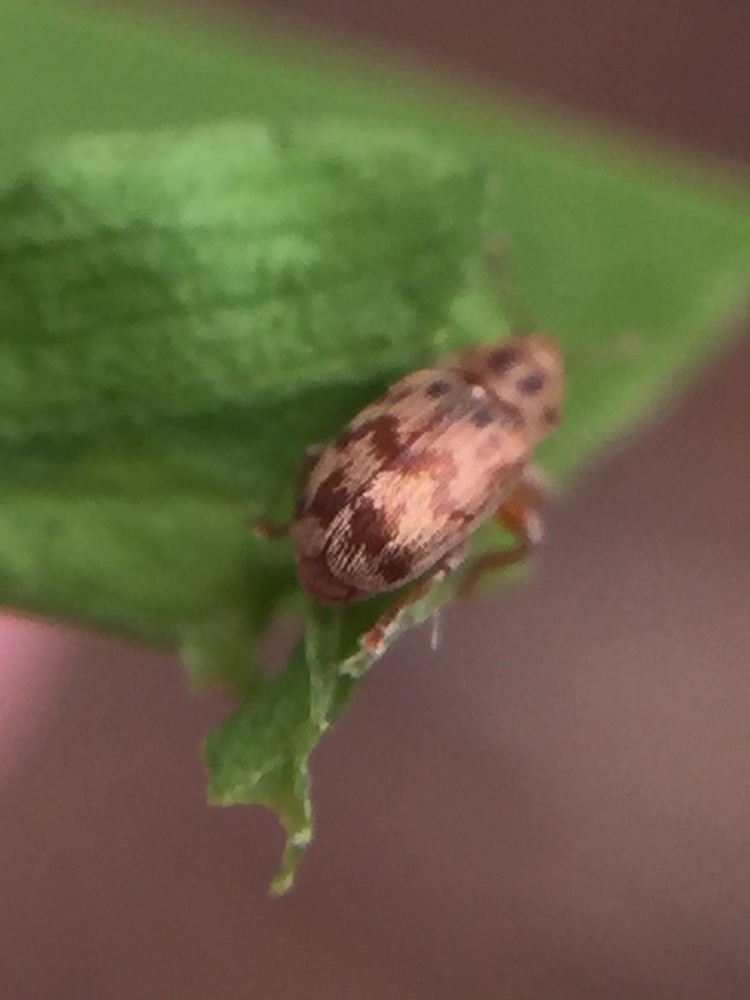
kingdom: Animalia
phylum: Arthropoda
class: Insecta
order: Coleoptera
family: Curculionidae
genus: Epamoebus
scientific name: Epamoebus ziczac
